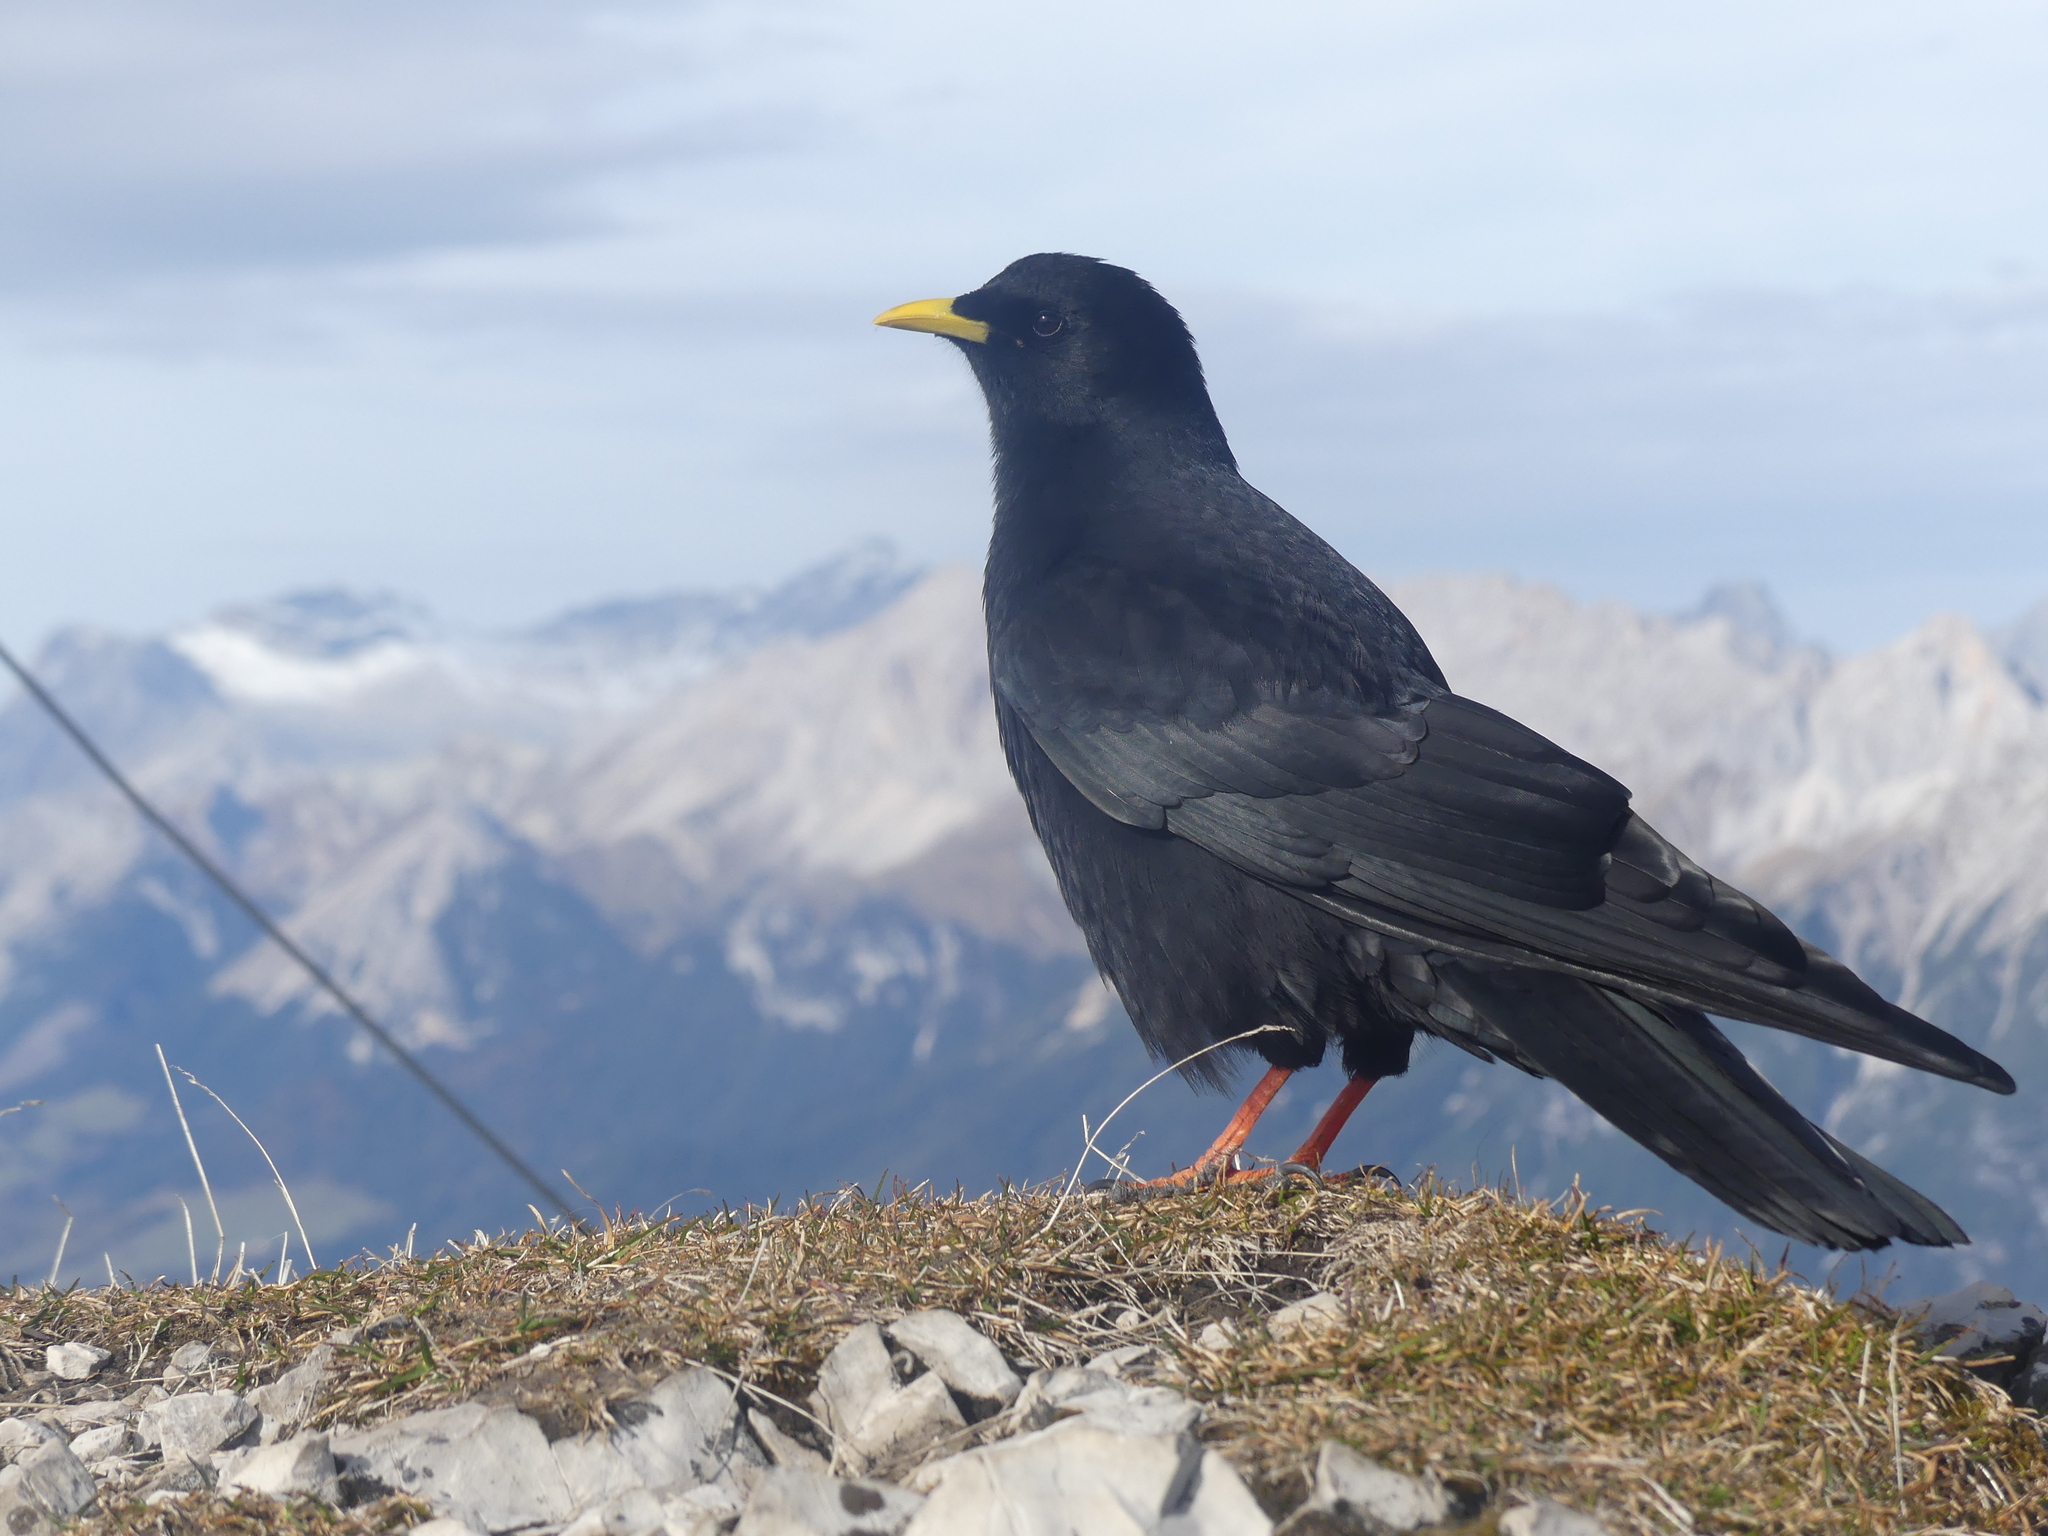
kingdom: Animalia
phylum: Chordata
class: Aves
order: Passeriformes
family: Corvidae
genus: Pyrrhocorax
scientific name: Pyrrhocorax graculus
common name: Alpine chough
